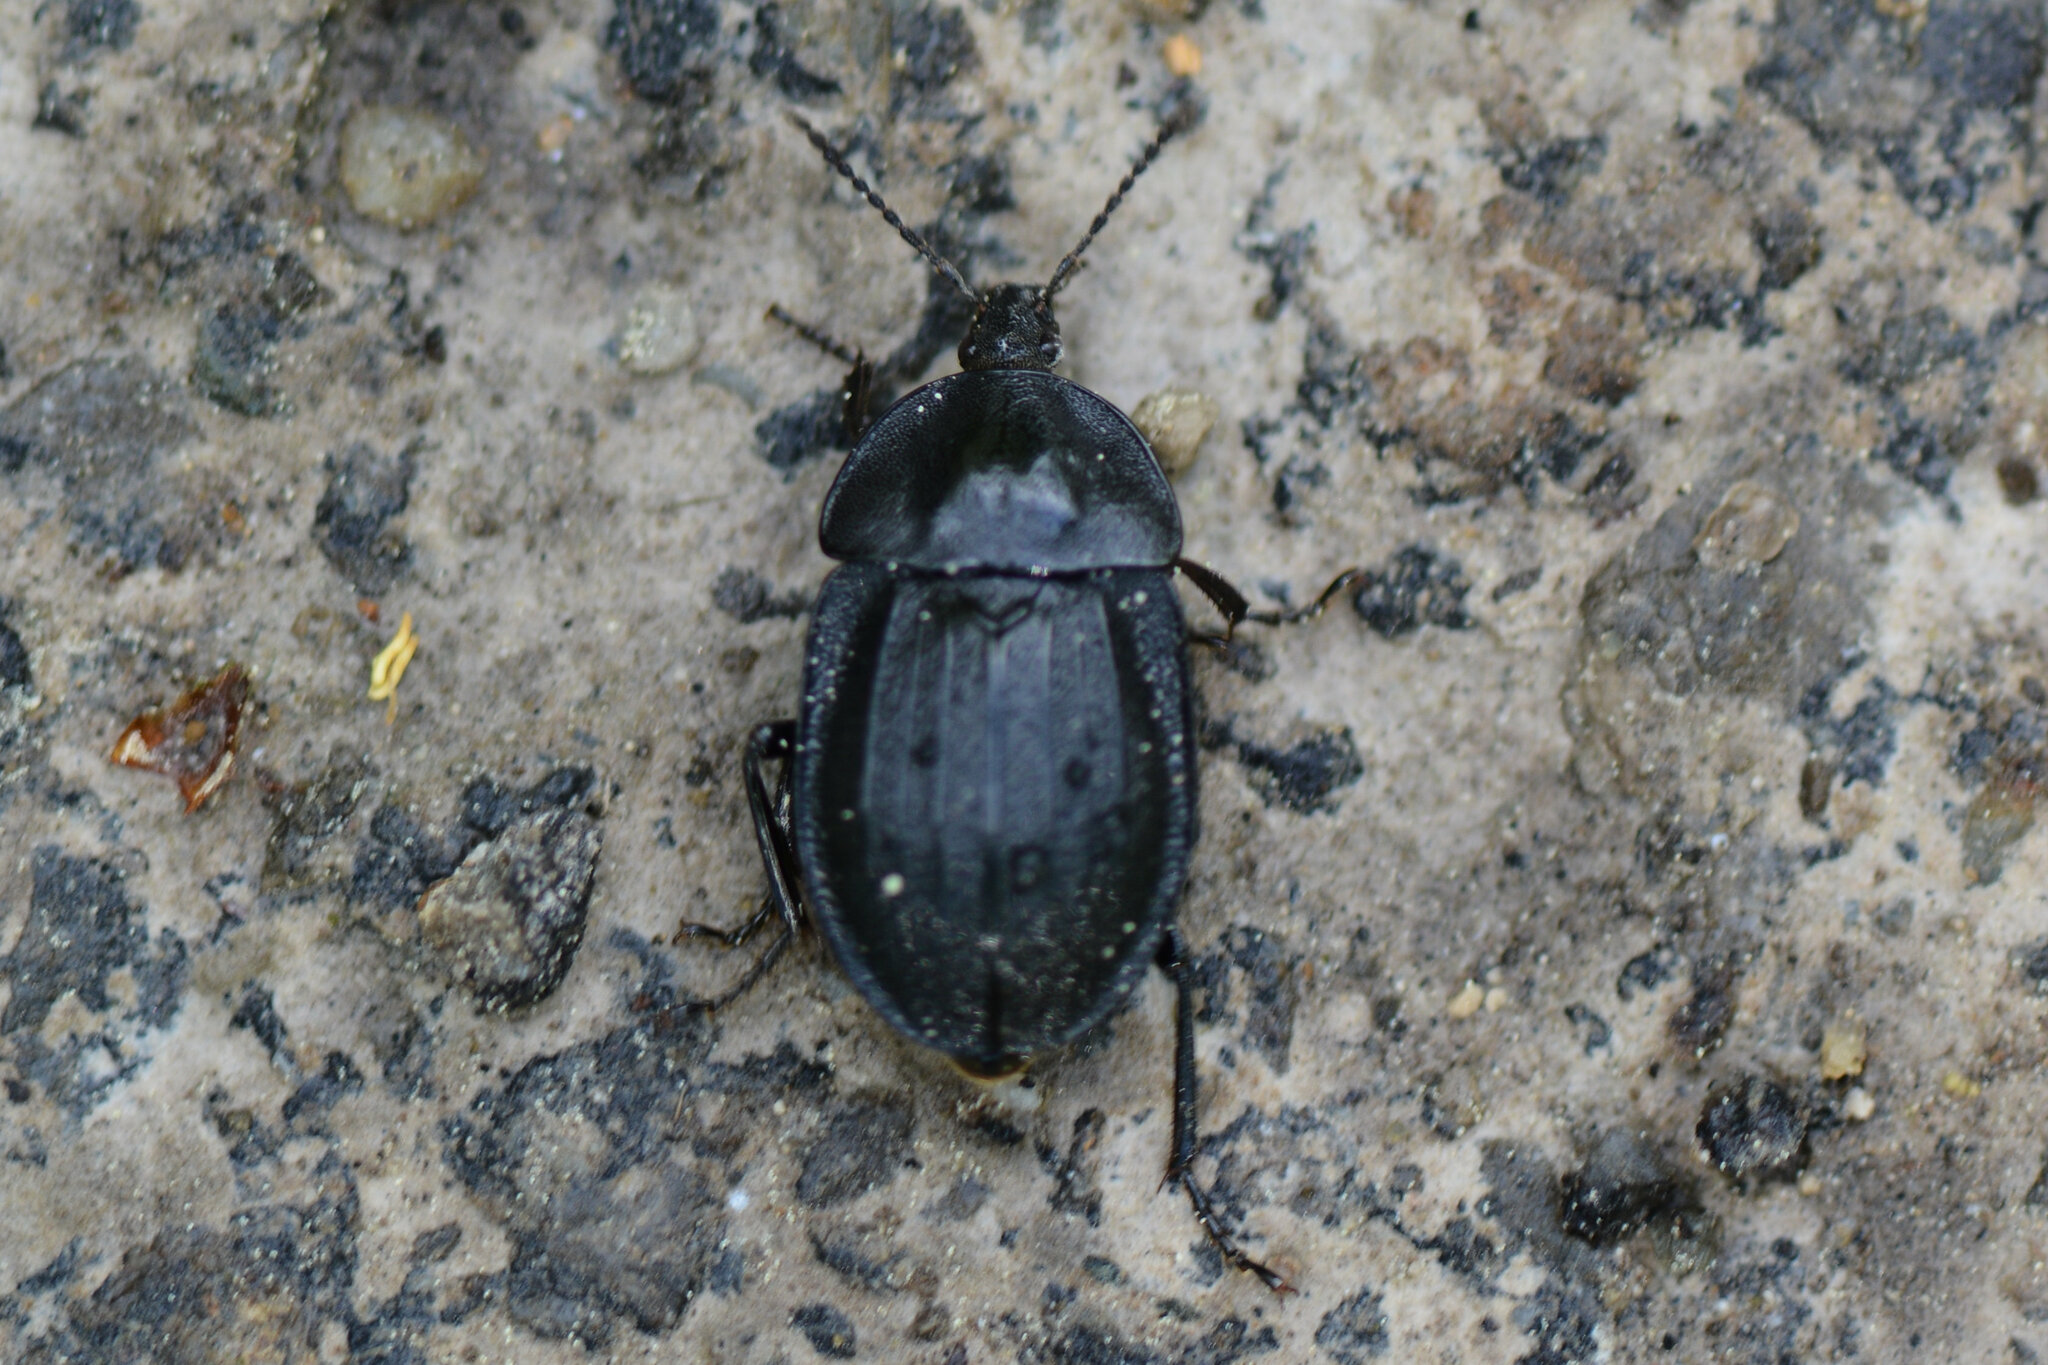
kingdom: Animalia
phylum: Arthropoda
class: Insecta
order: Coleoptera
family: Staphylinidae
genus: Silpha
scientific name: Silpha atrata
